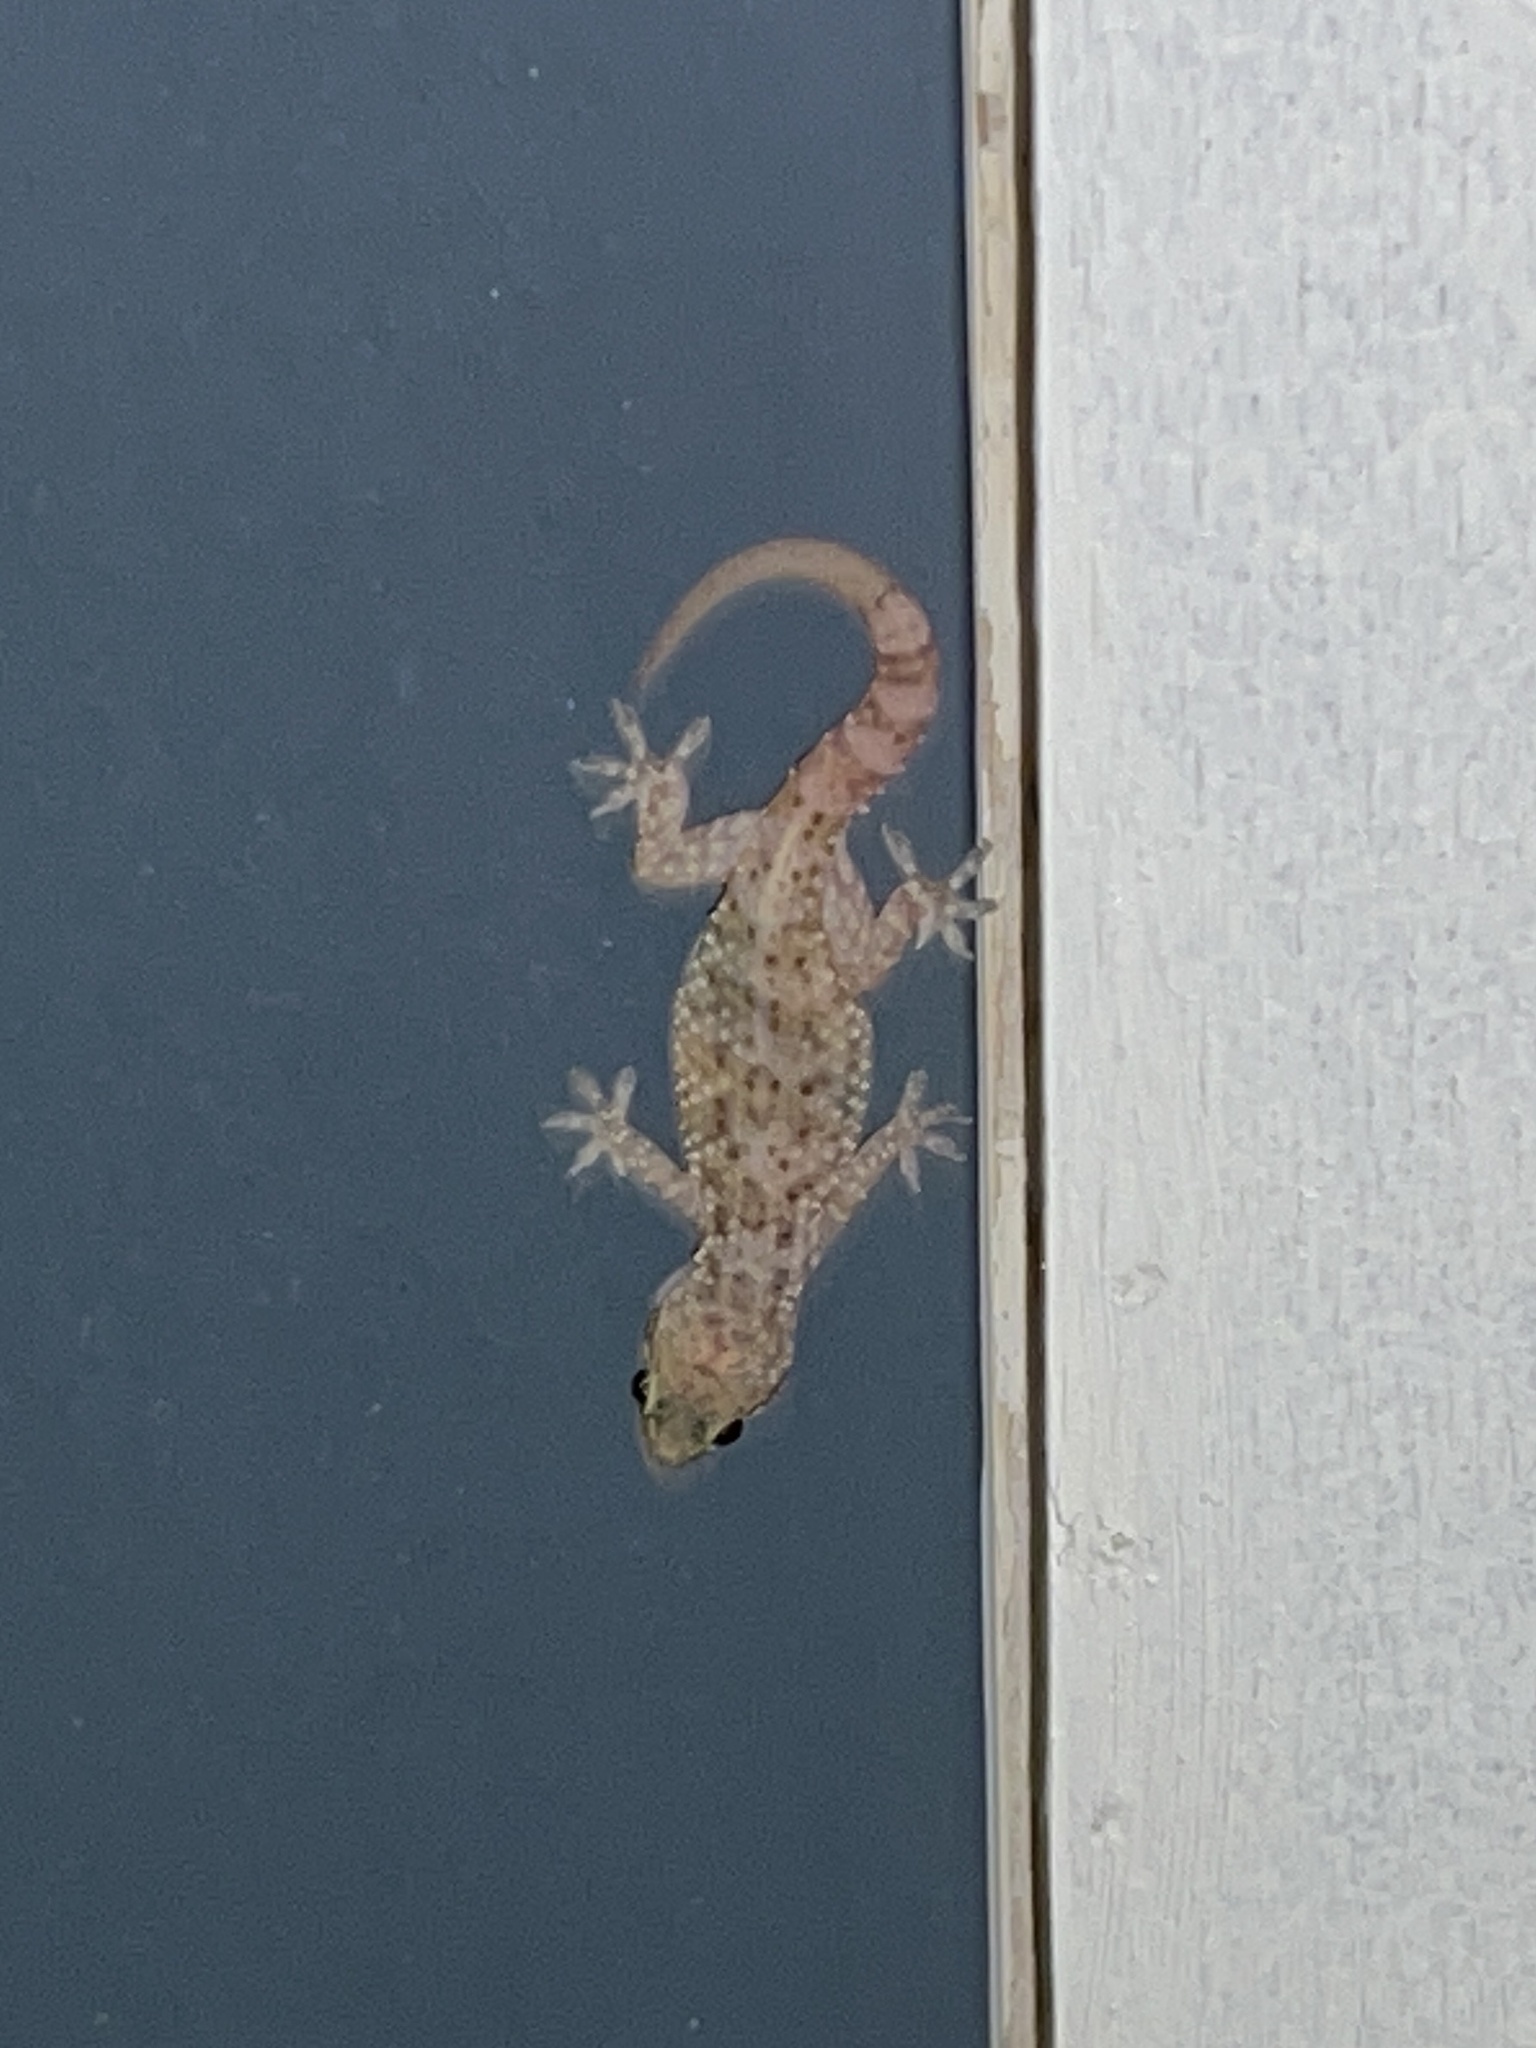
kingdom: Animalia
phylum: Chordata
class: Squamata
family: Gekkonidae
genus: Hemidactylus
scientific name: Hemidactylus turcicus
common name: Turkish gecko
